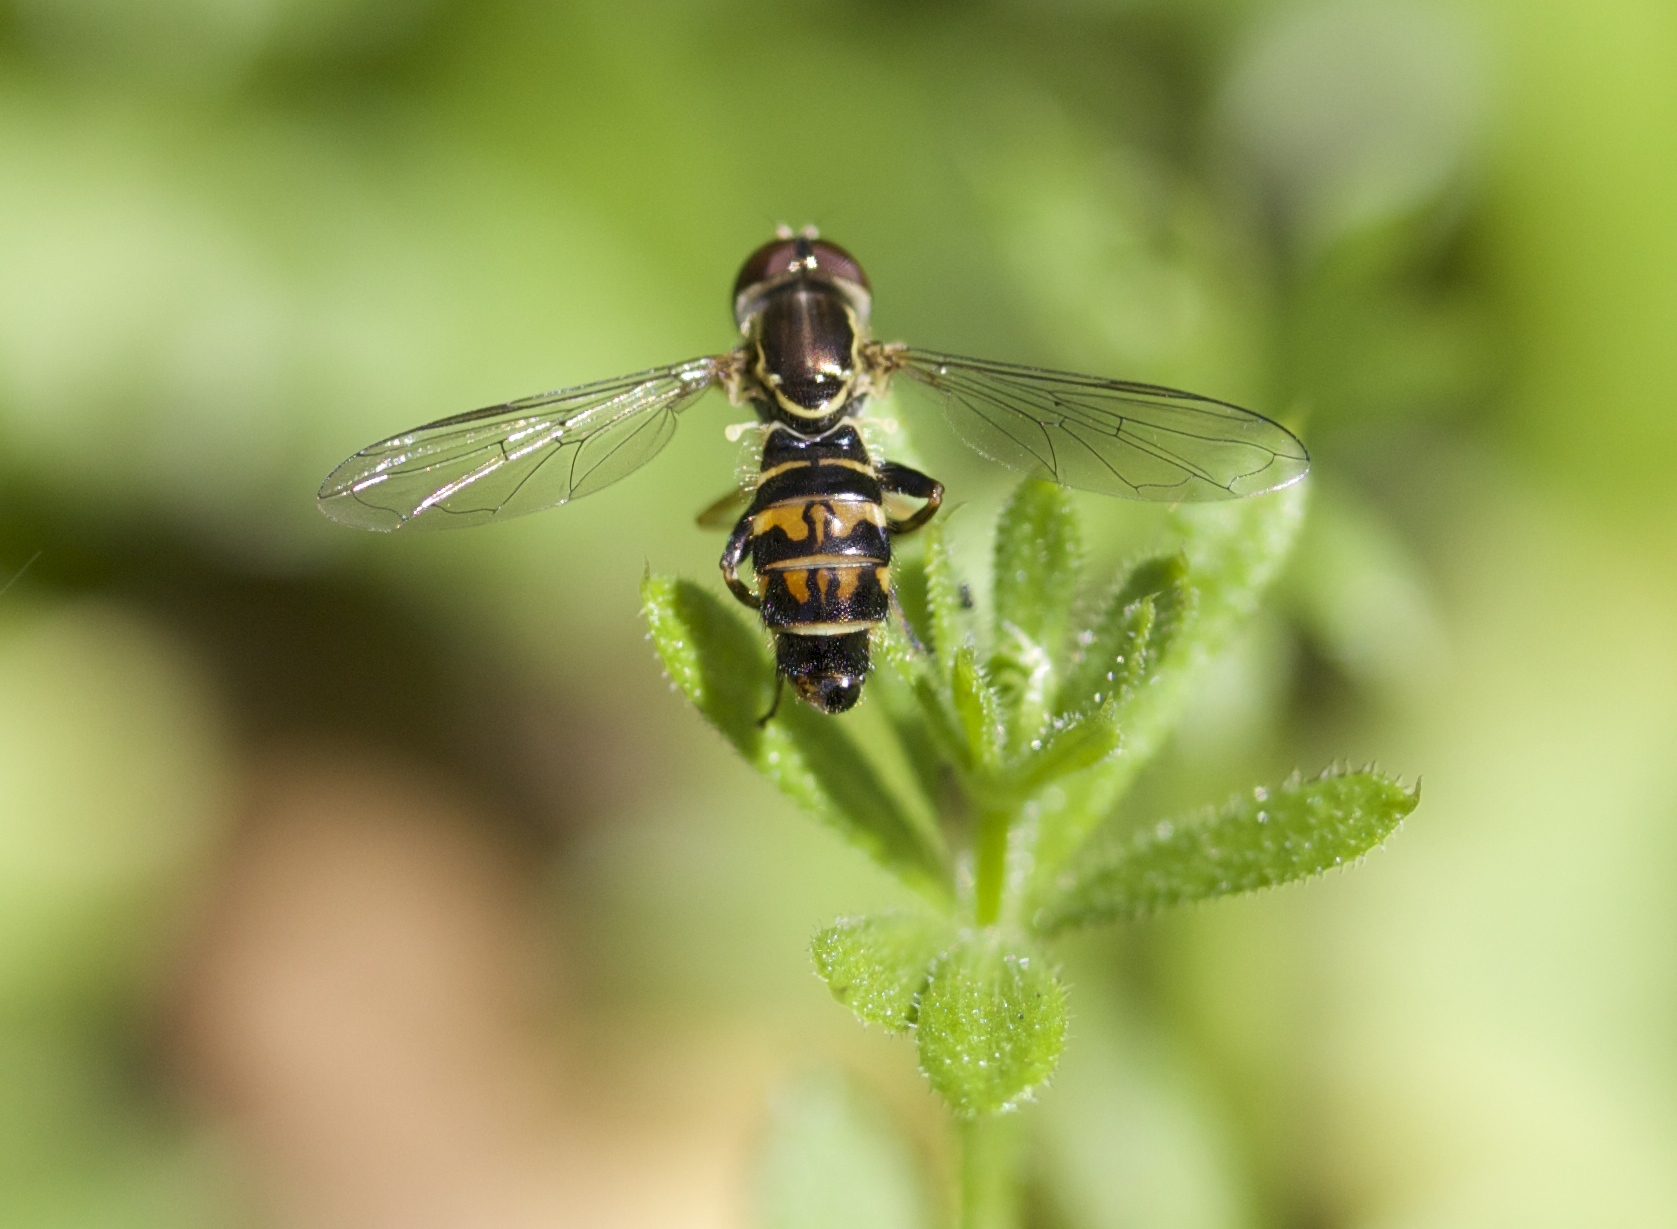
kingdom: Animalia
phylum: Arthropoda
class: Insecta
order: Diptera
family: Syrphidae
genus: Toxomerus
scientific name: Toxomerus occidentalis
